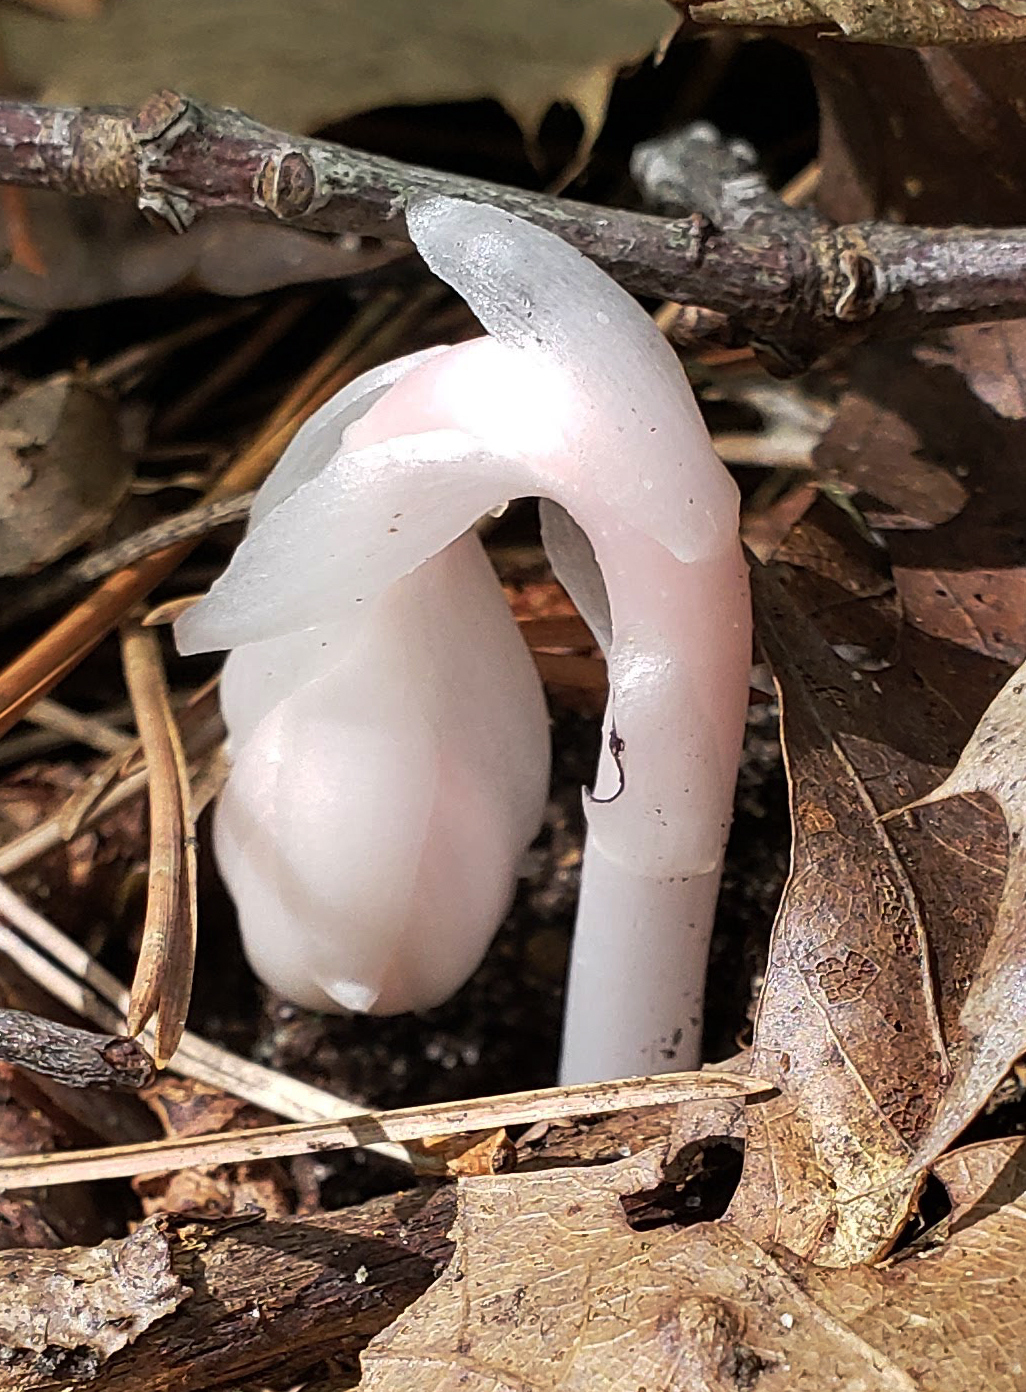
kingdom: Plantae
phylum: Tracheophyta
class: Magnoliopsida
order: Ericales
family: Ericaceae
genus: Monotropa
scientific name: Monotropa uniflora
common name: Convulsion root
